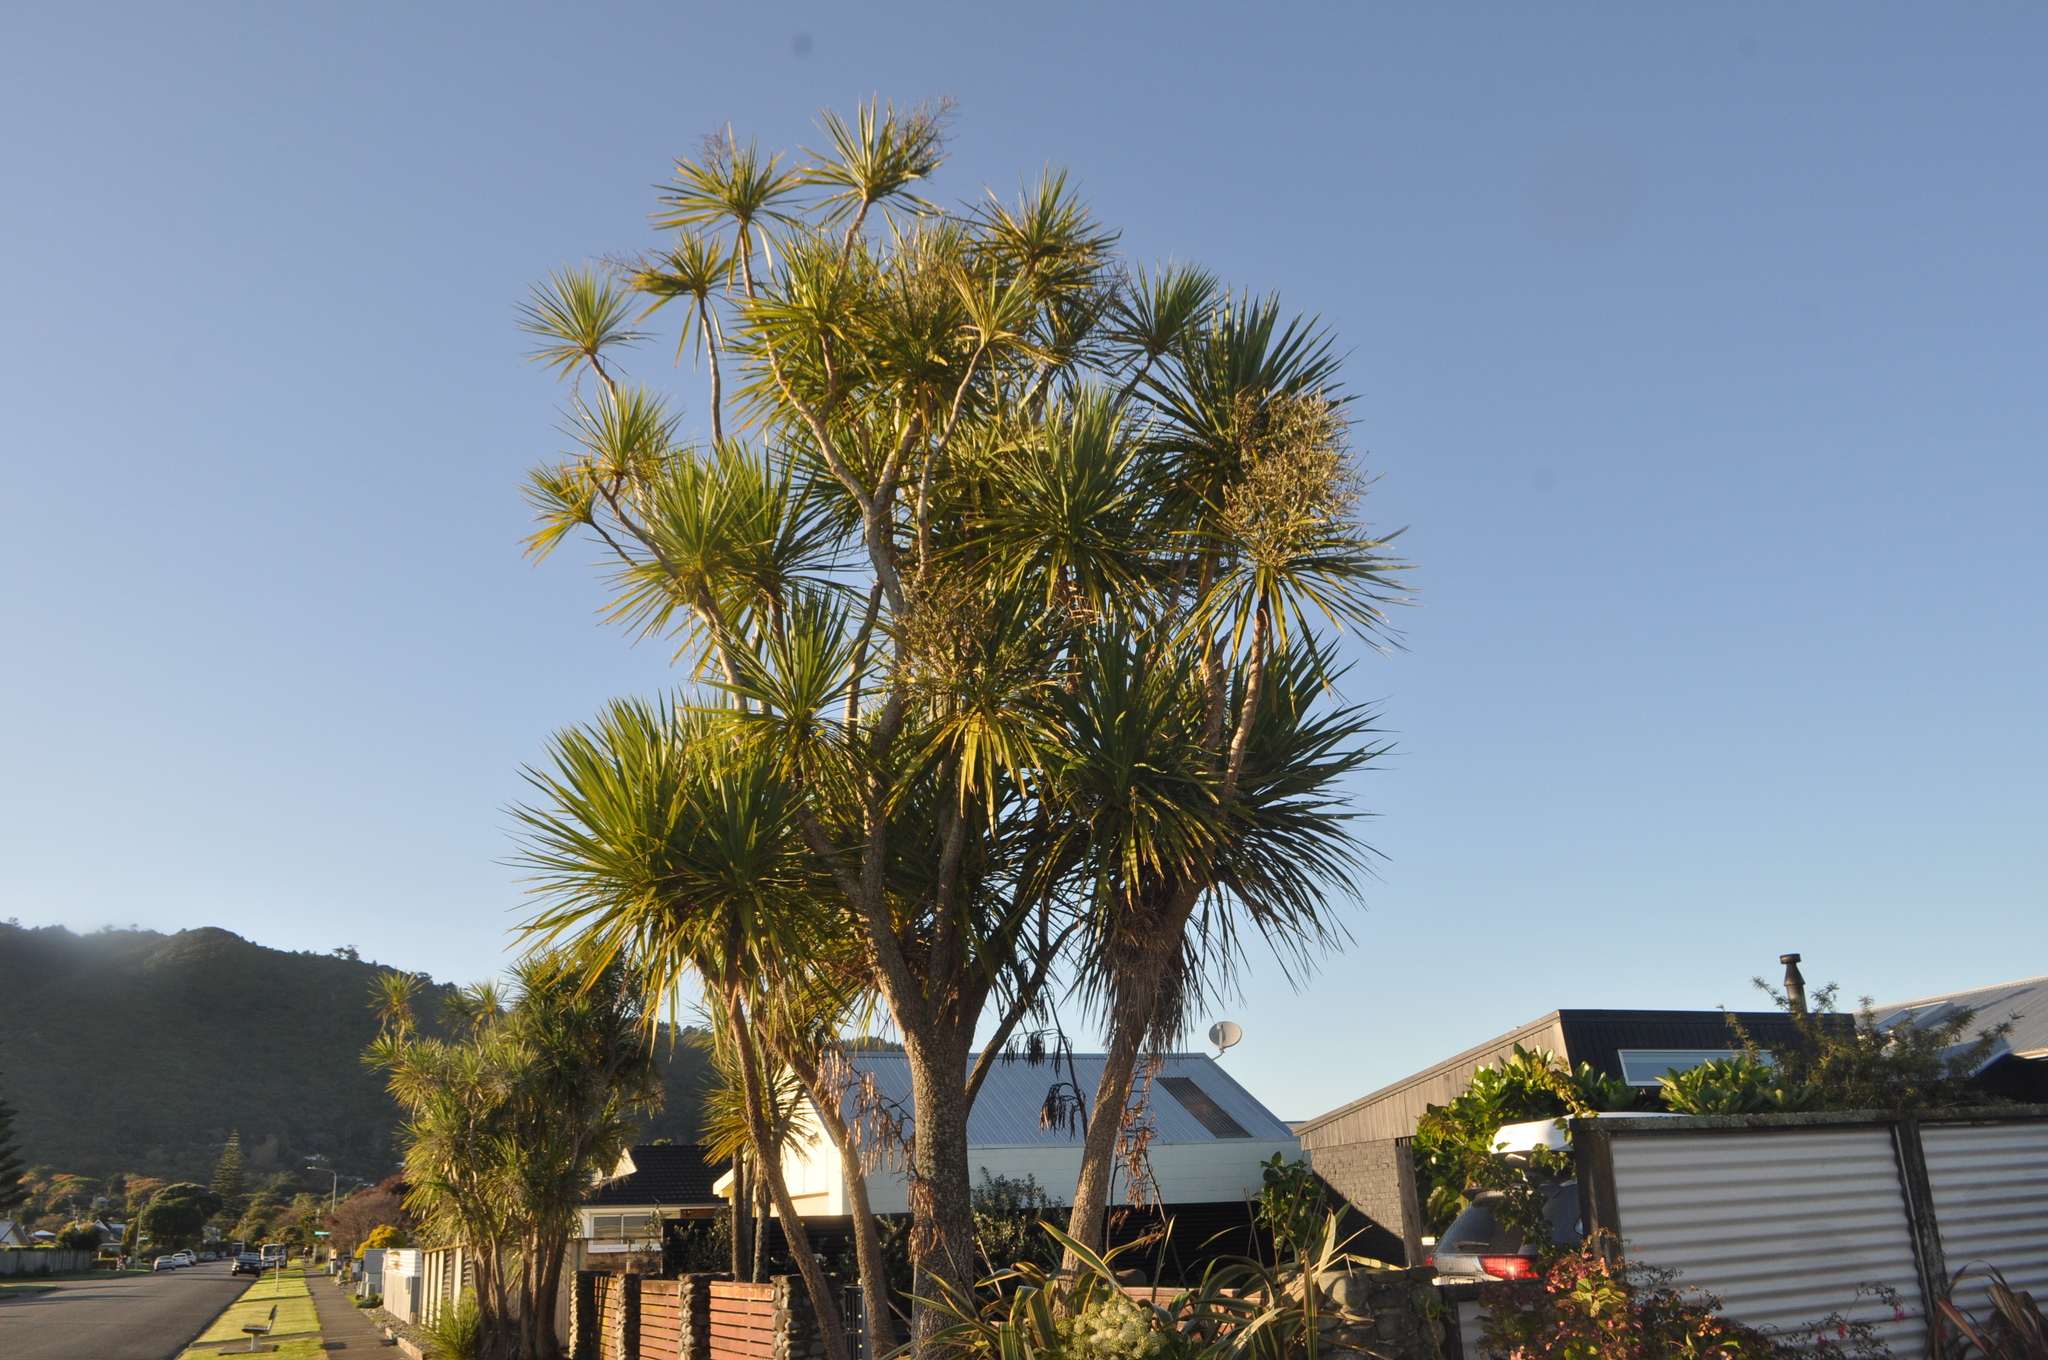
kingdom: Plantae
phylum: Tracheophyta
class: Liliopsida
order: Asparagales
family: Asparagaceae
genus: Cordyline
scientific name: Cordyline australis
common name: Cabbage-palm
